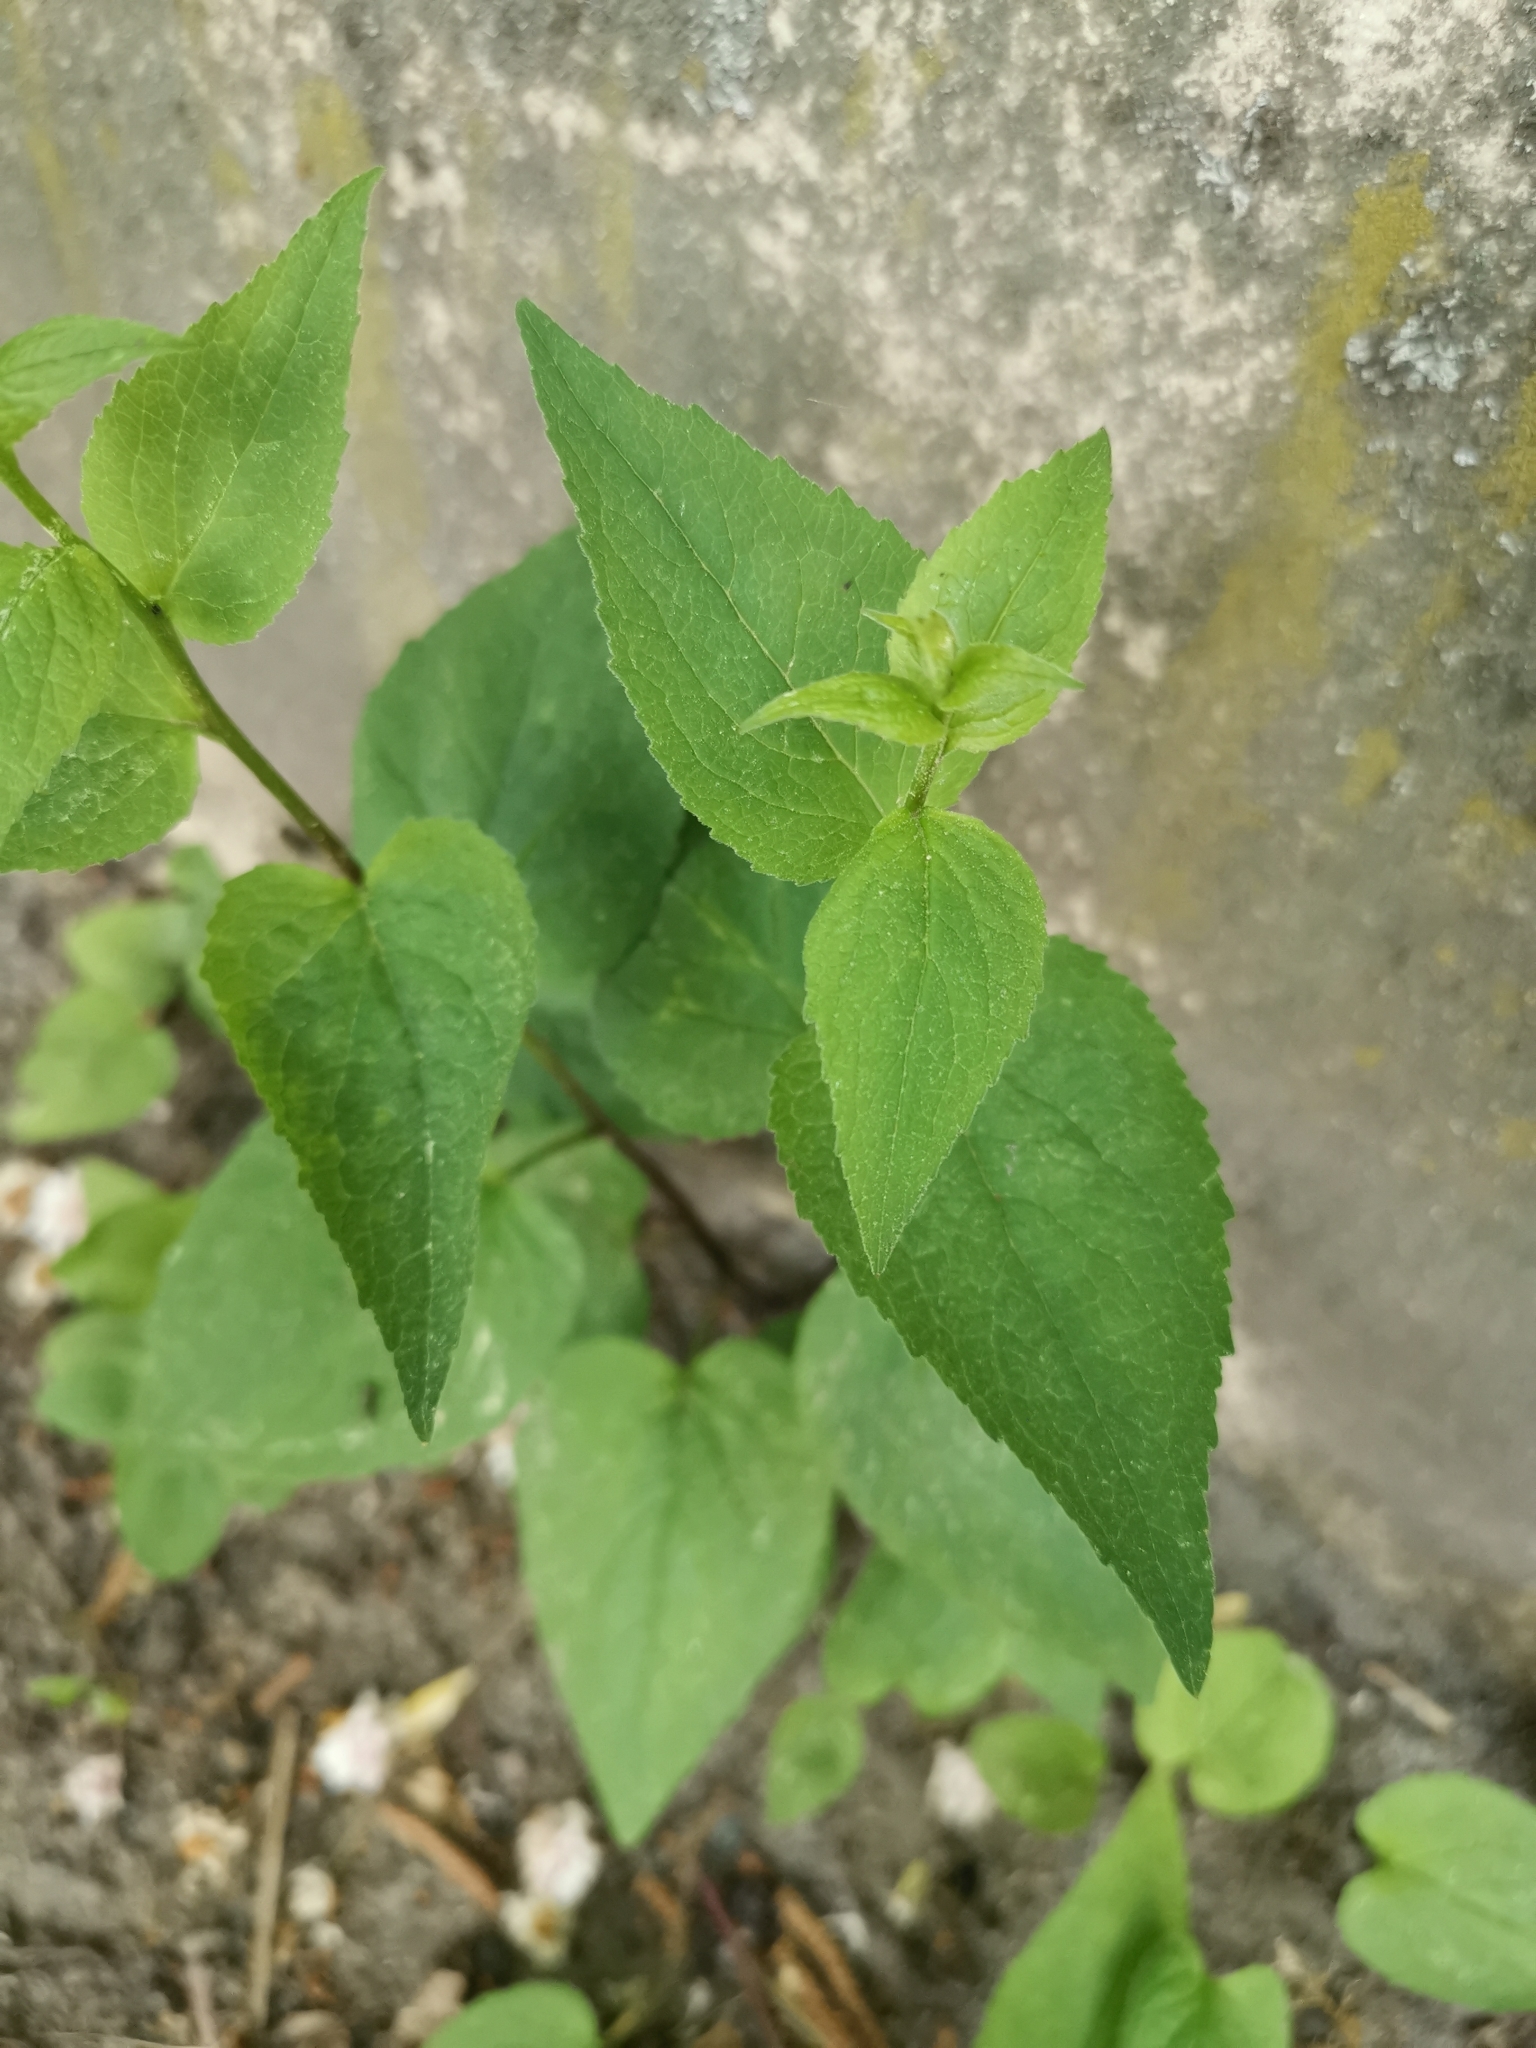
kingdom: Plantae
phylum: Tracheophyta
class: Magnoliopsida
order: Asterales
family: Campanulaceae
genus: Campanula
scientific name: Campanula rapunculoides
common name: Creeping bellflower
